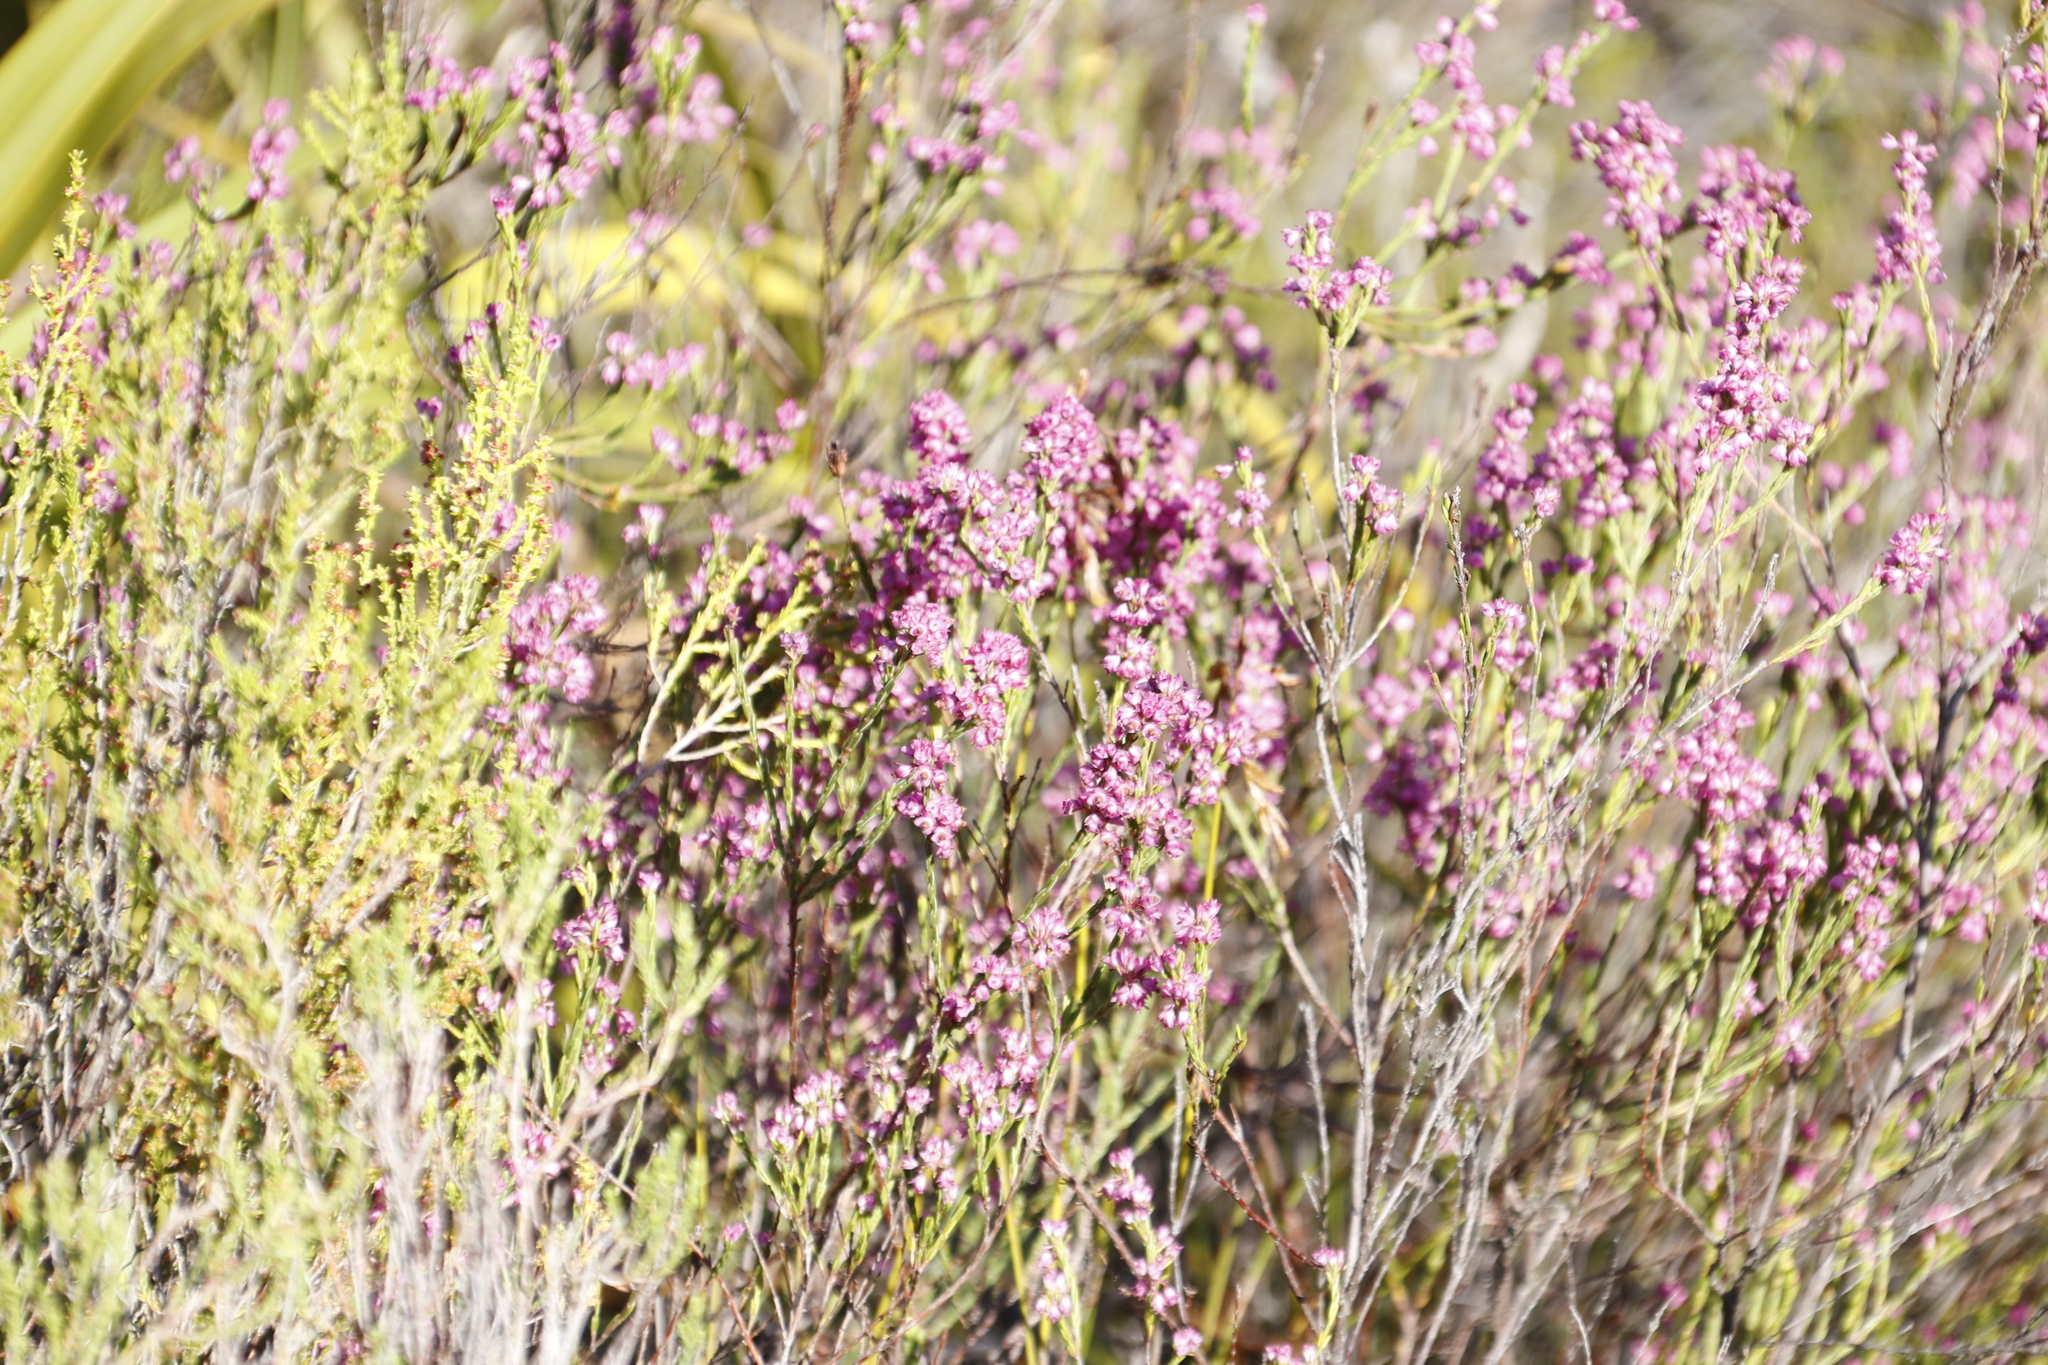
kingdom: Plantae
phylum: Tracheophyta
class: Magnoliopsida
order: Ericales
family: Ericaceae
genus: Erica
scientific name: Erica corifolia
